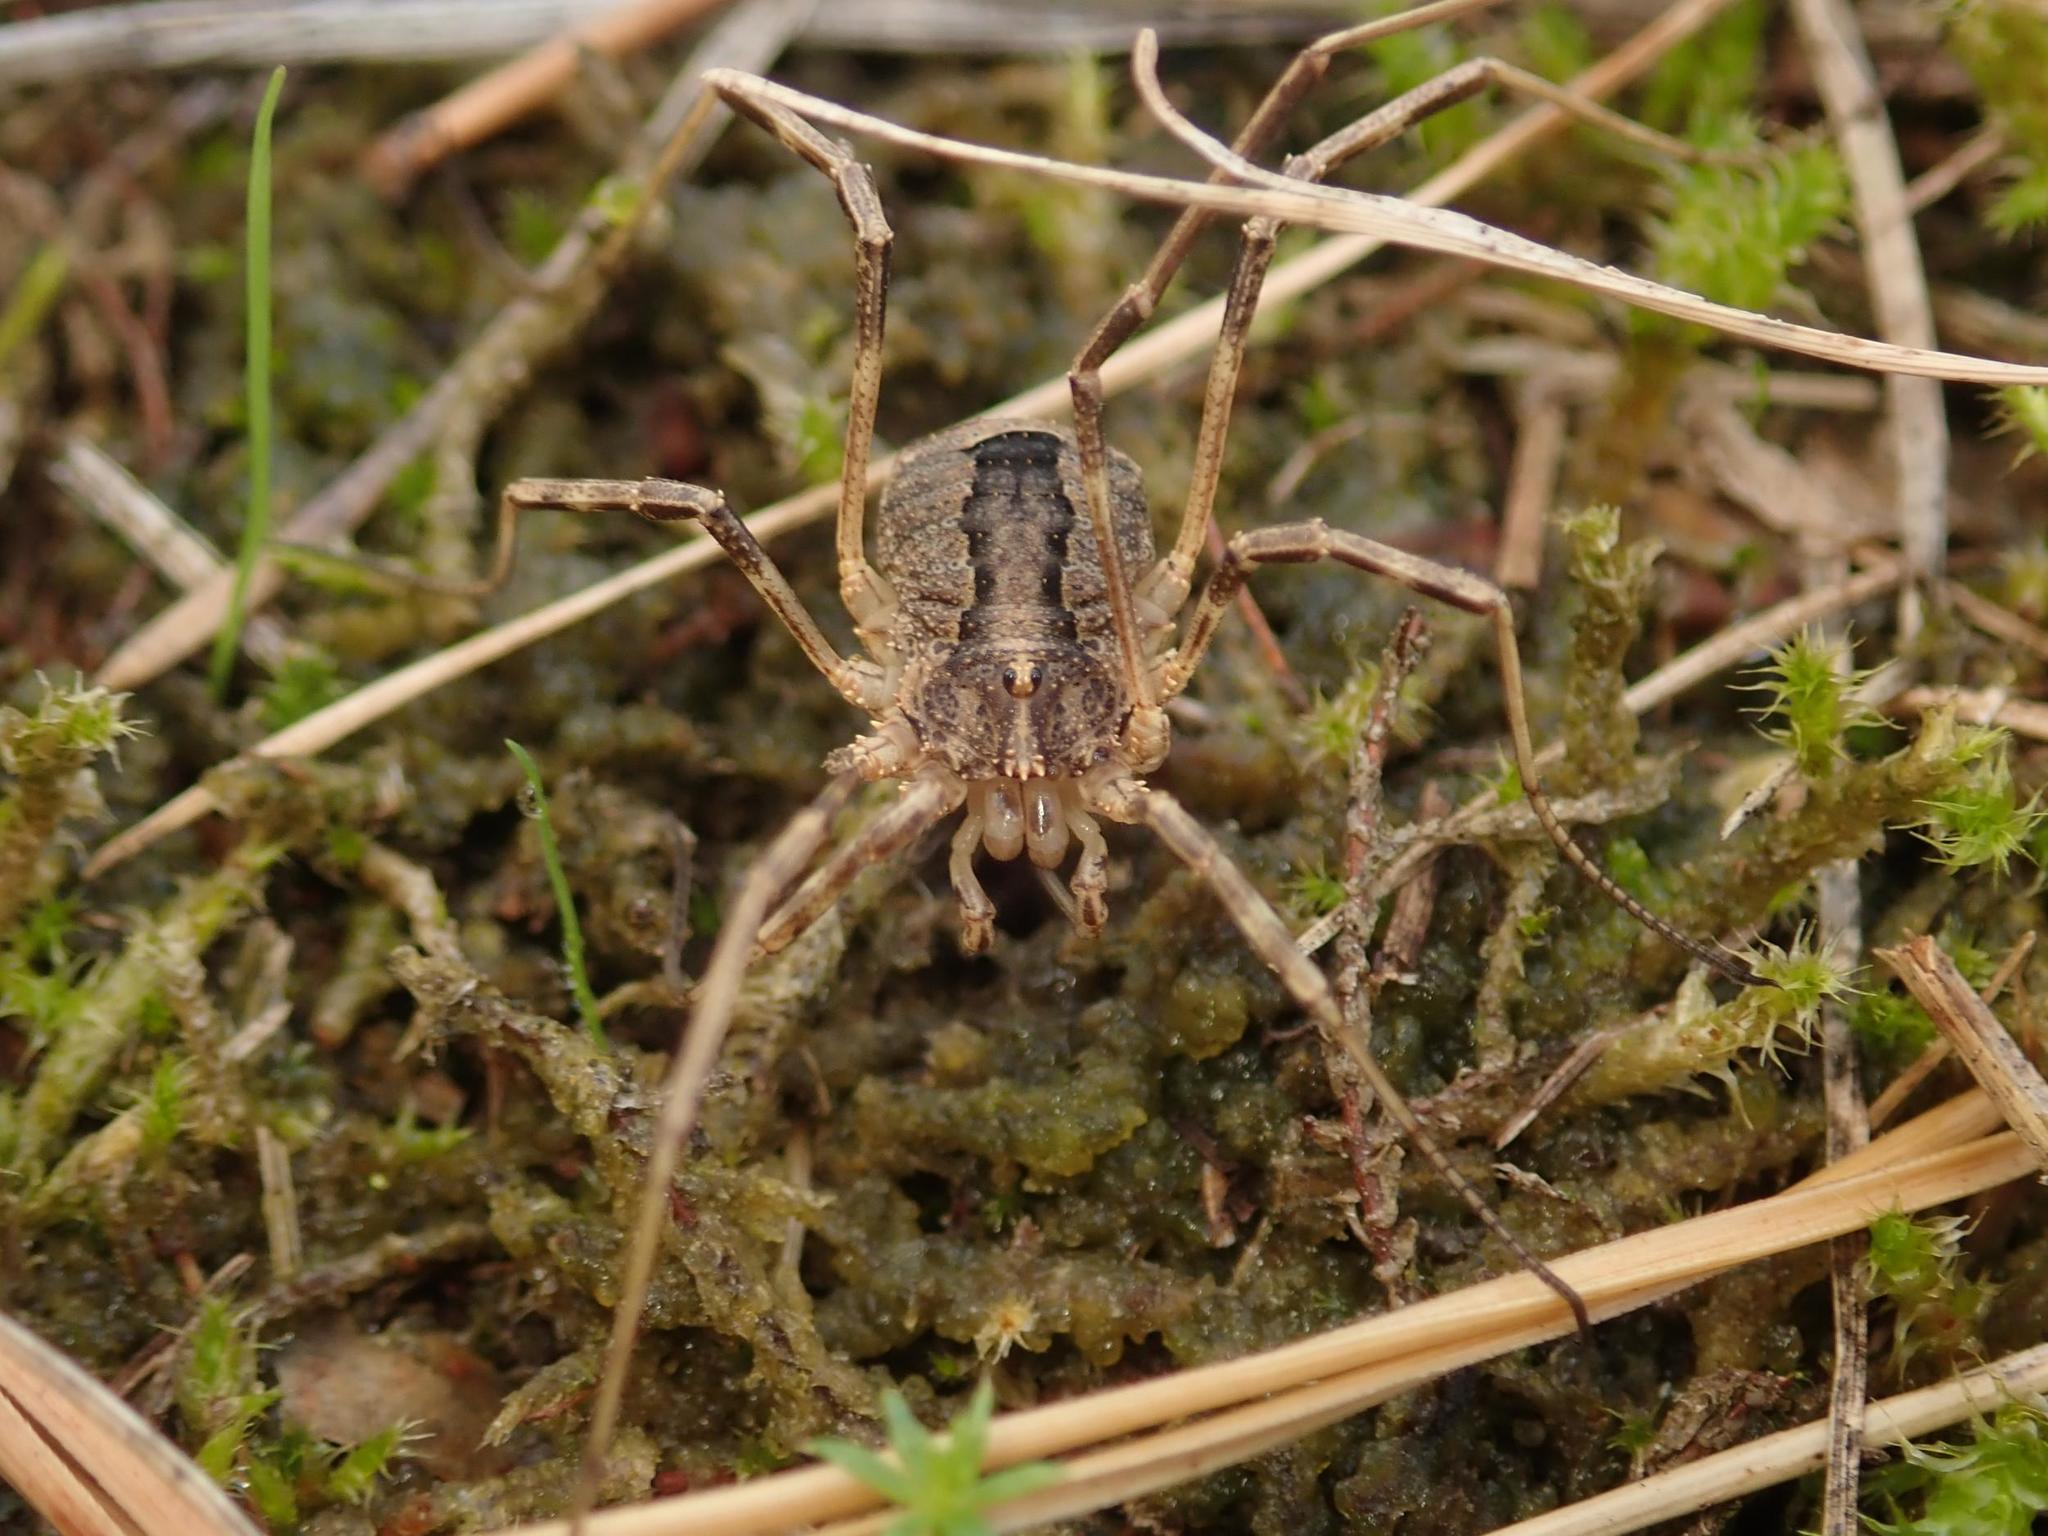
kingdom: Animalia
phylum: Arthropoda
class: Arachnida
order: Opiliones
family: Phalangiidae
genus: Odiellus
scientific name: Odiellus spinosus
